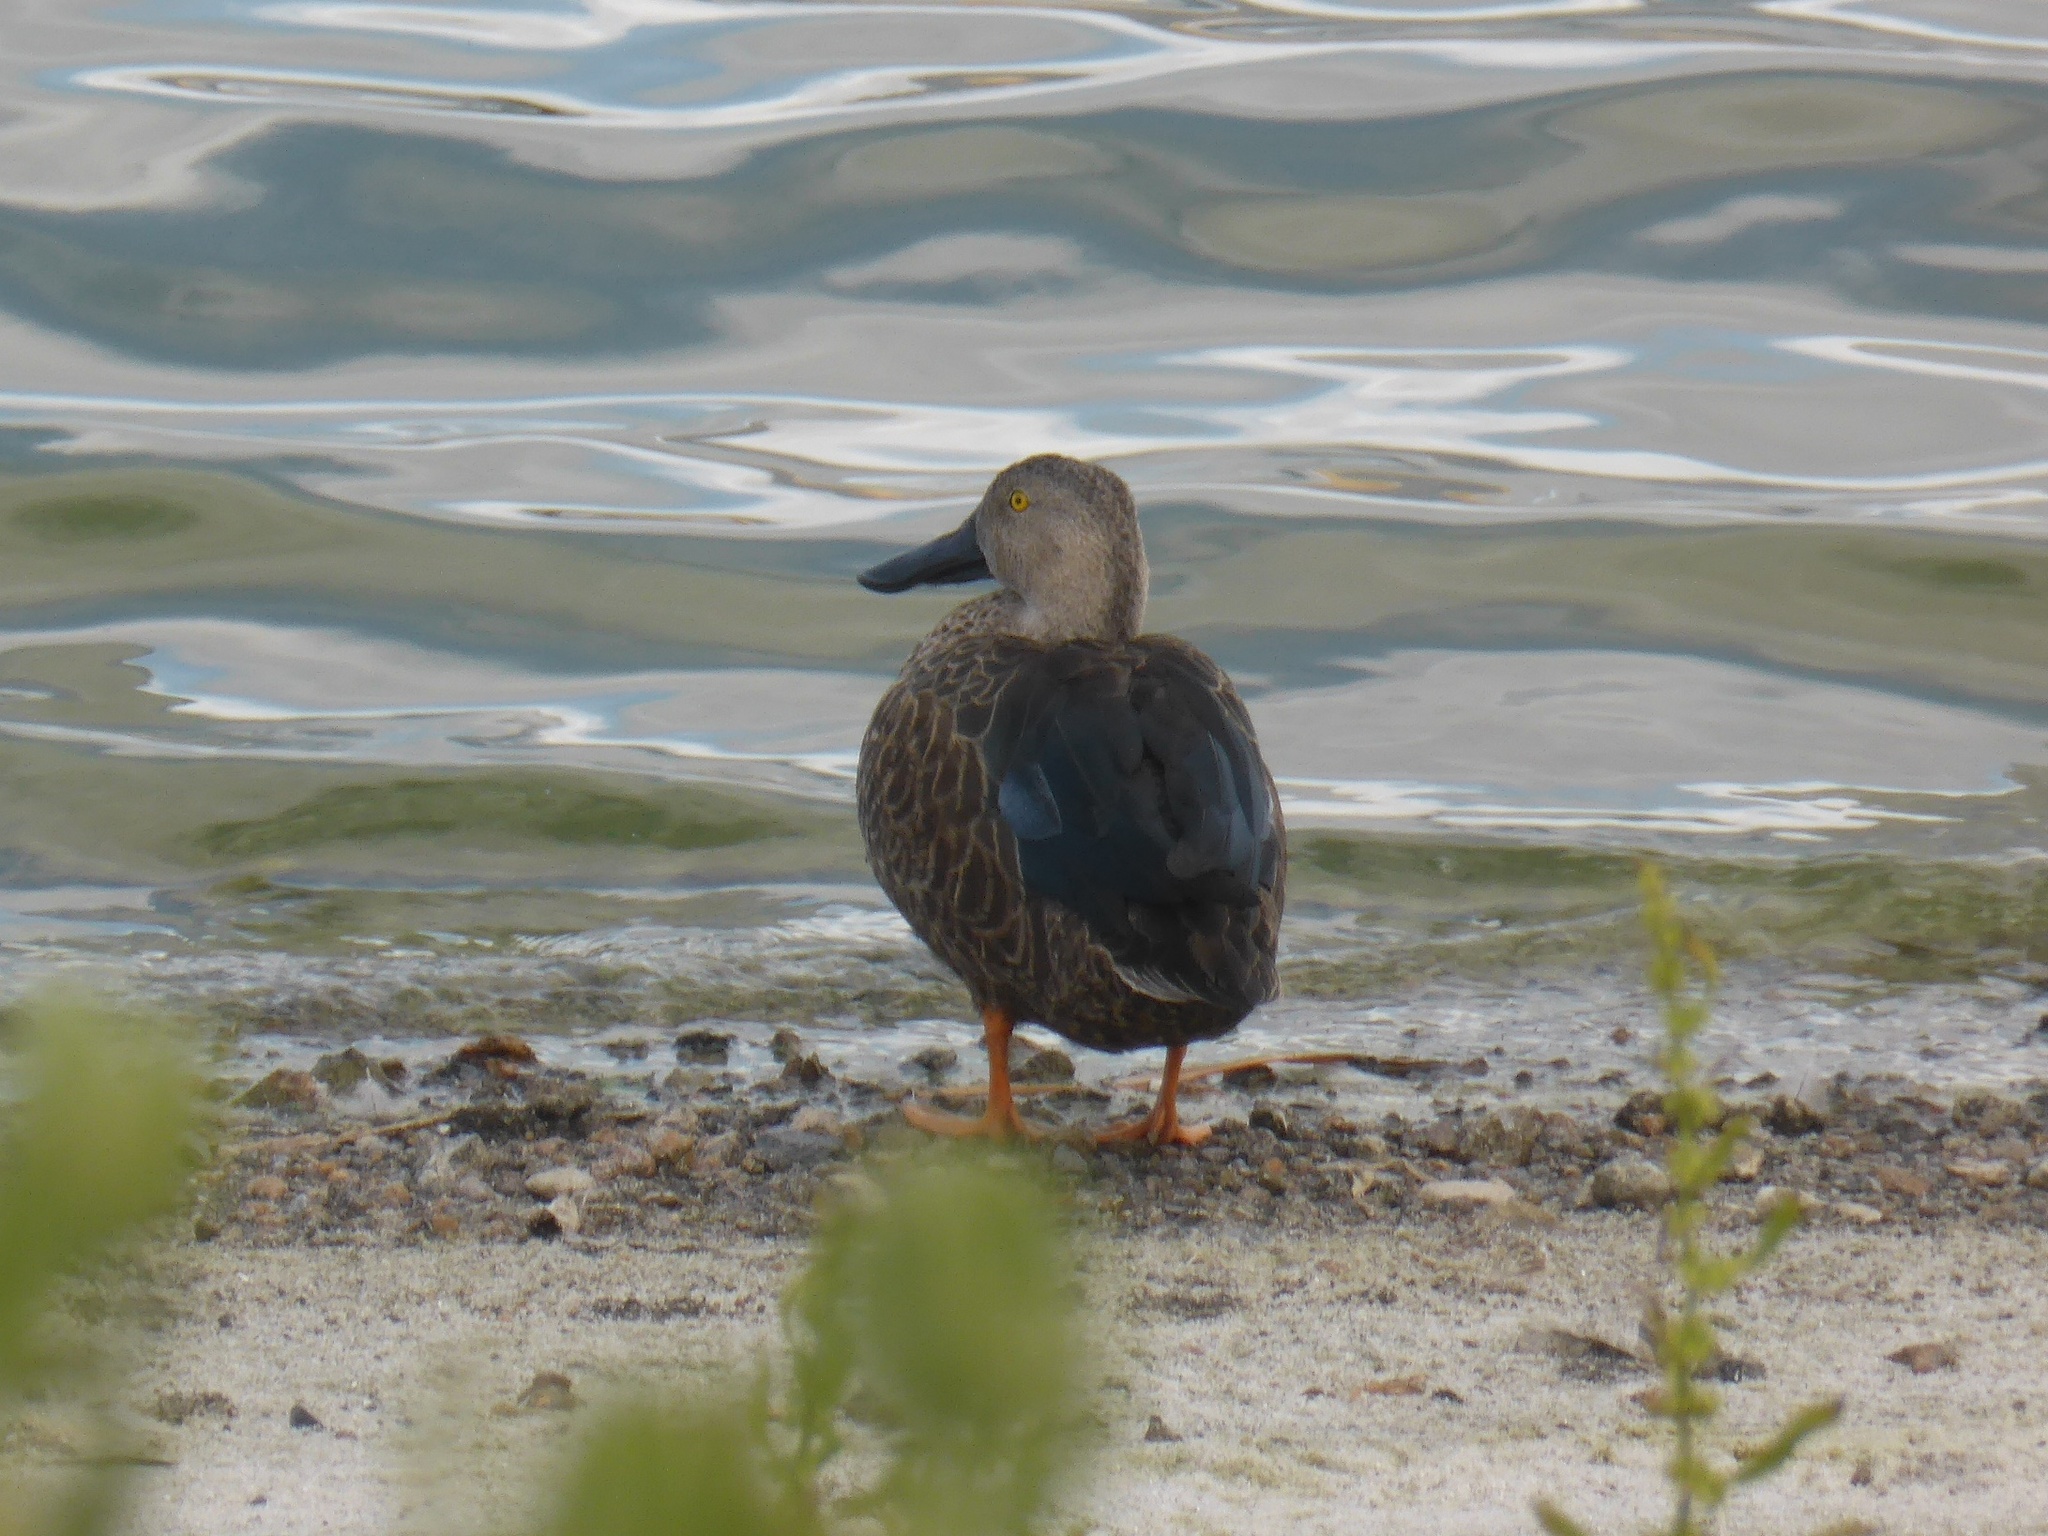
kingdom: Animalia
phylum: Chordata
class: Aves
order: Anseriformes
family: Anatidae
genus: Spatula
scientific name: Spatula smithii
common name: Cape shoveler
